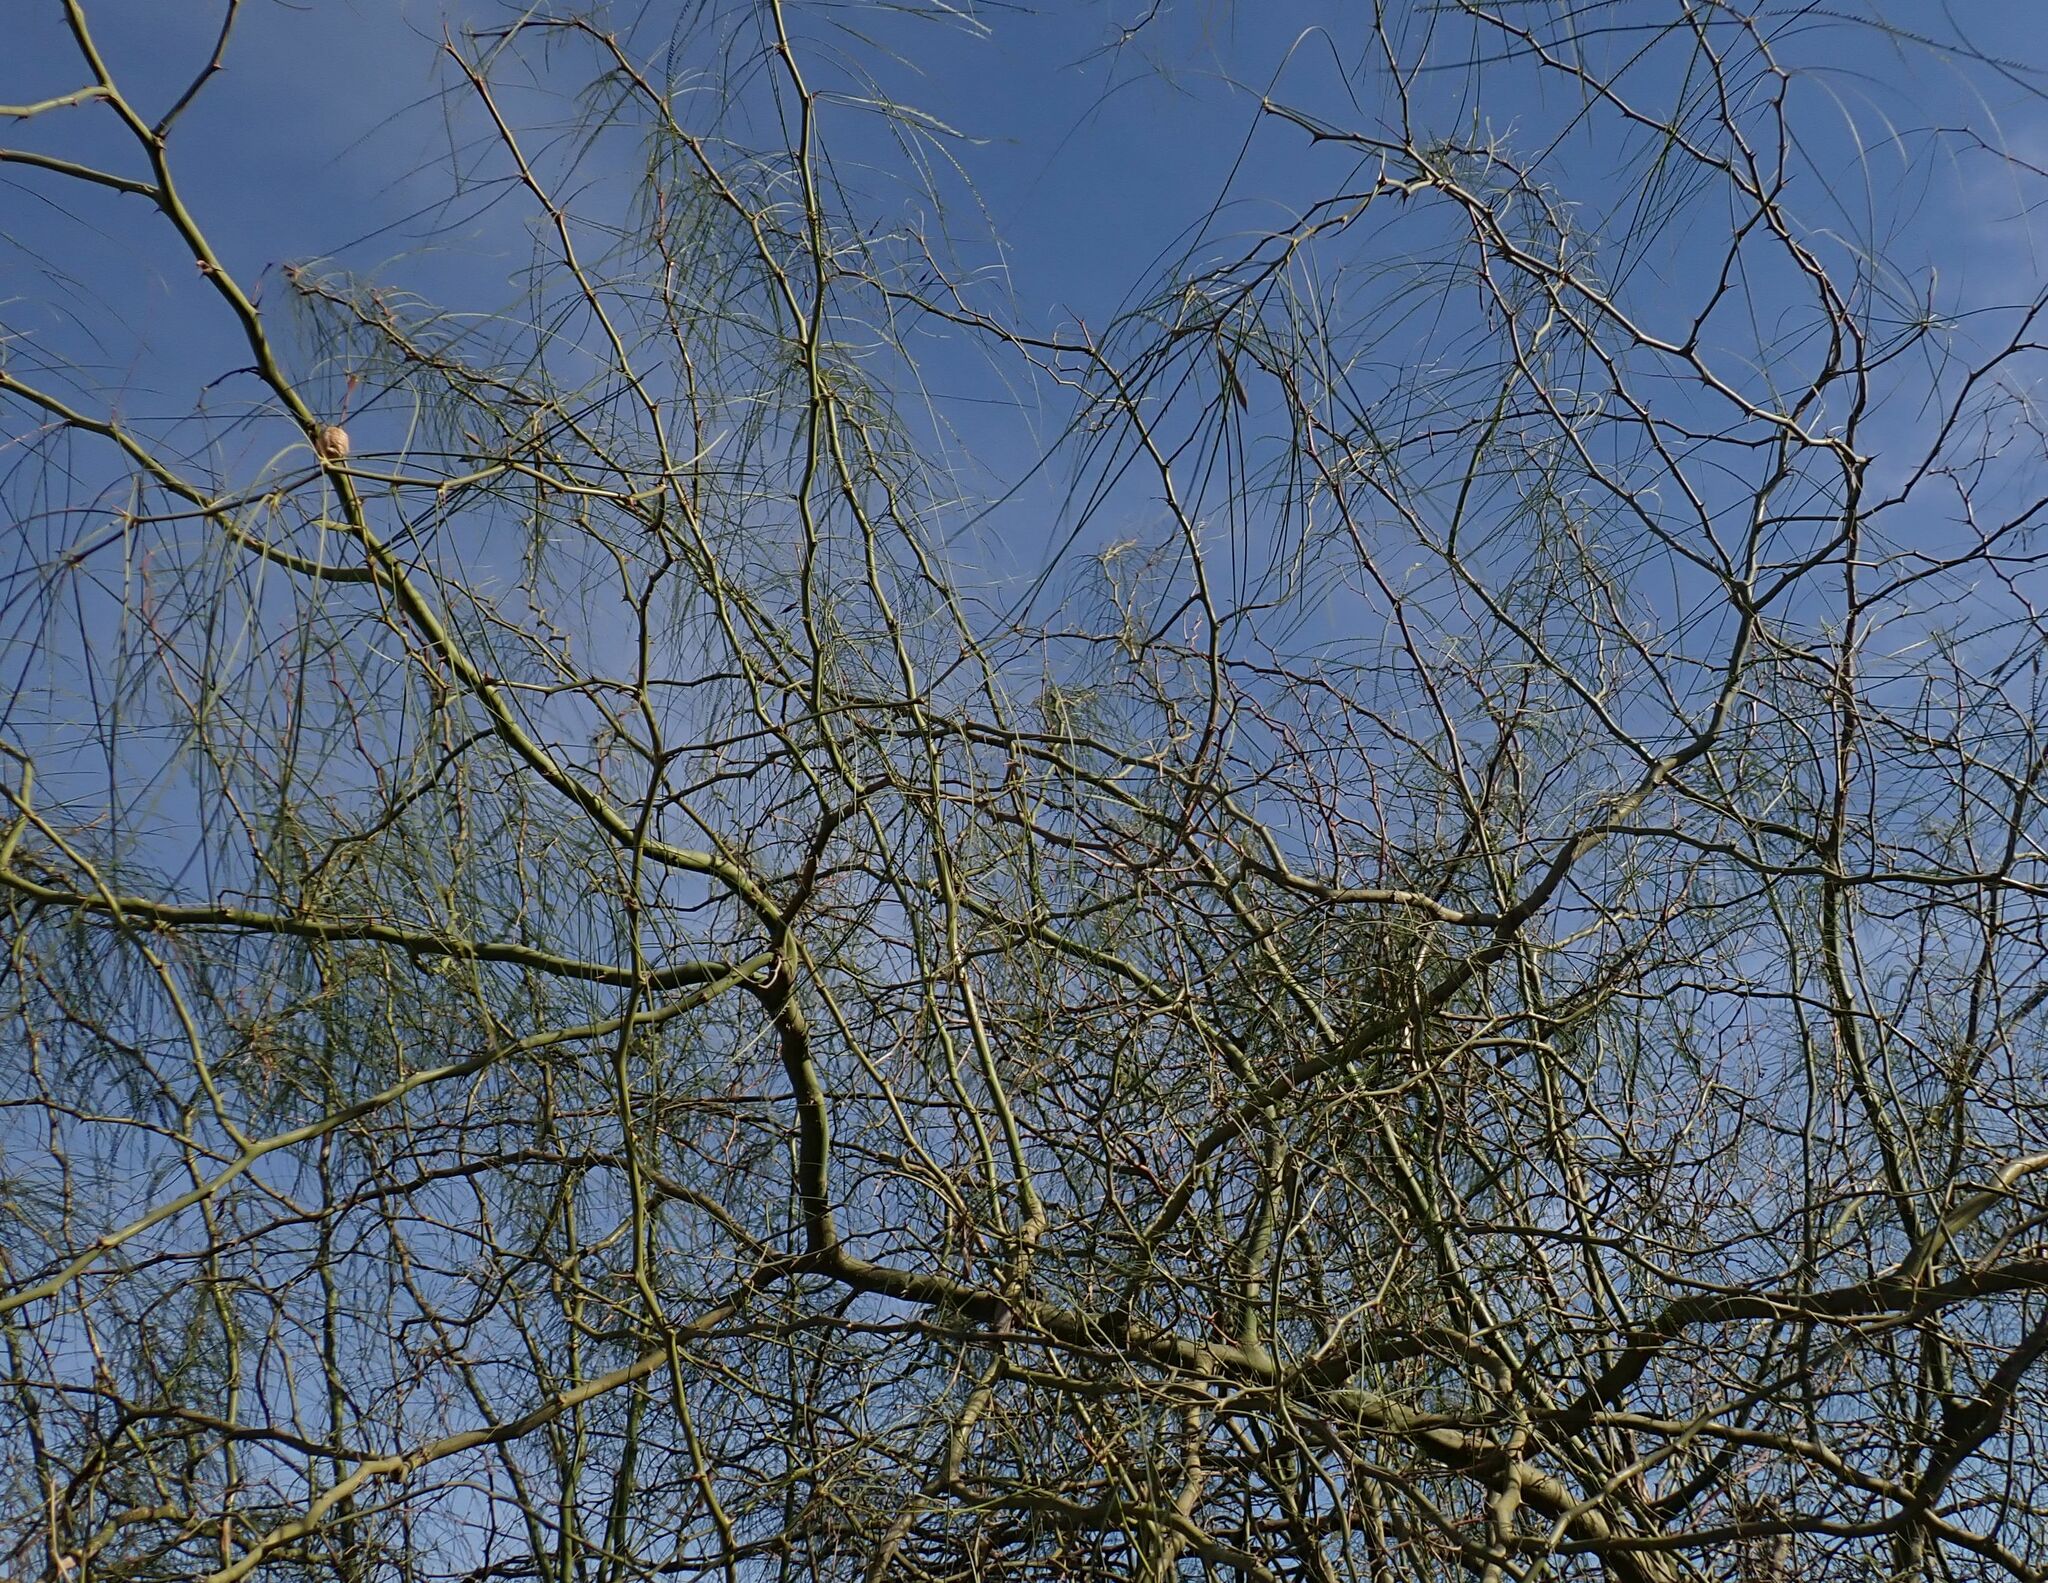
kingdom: Plantae
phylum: Tracheophyta
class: Magnoliopsida
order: Fabales
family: Fabaceae
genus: Parkinsonia
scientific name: Parkinsonia aculeata
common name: Jerusalem thorn
